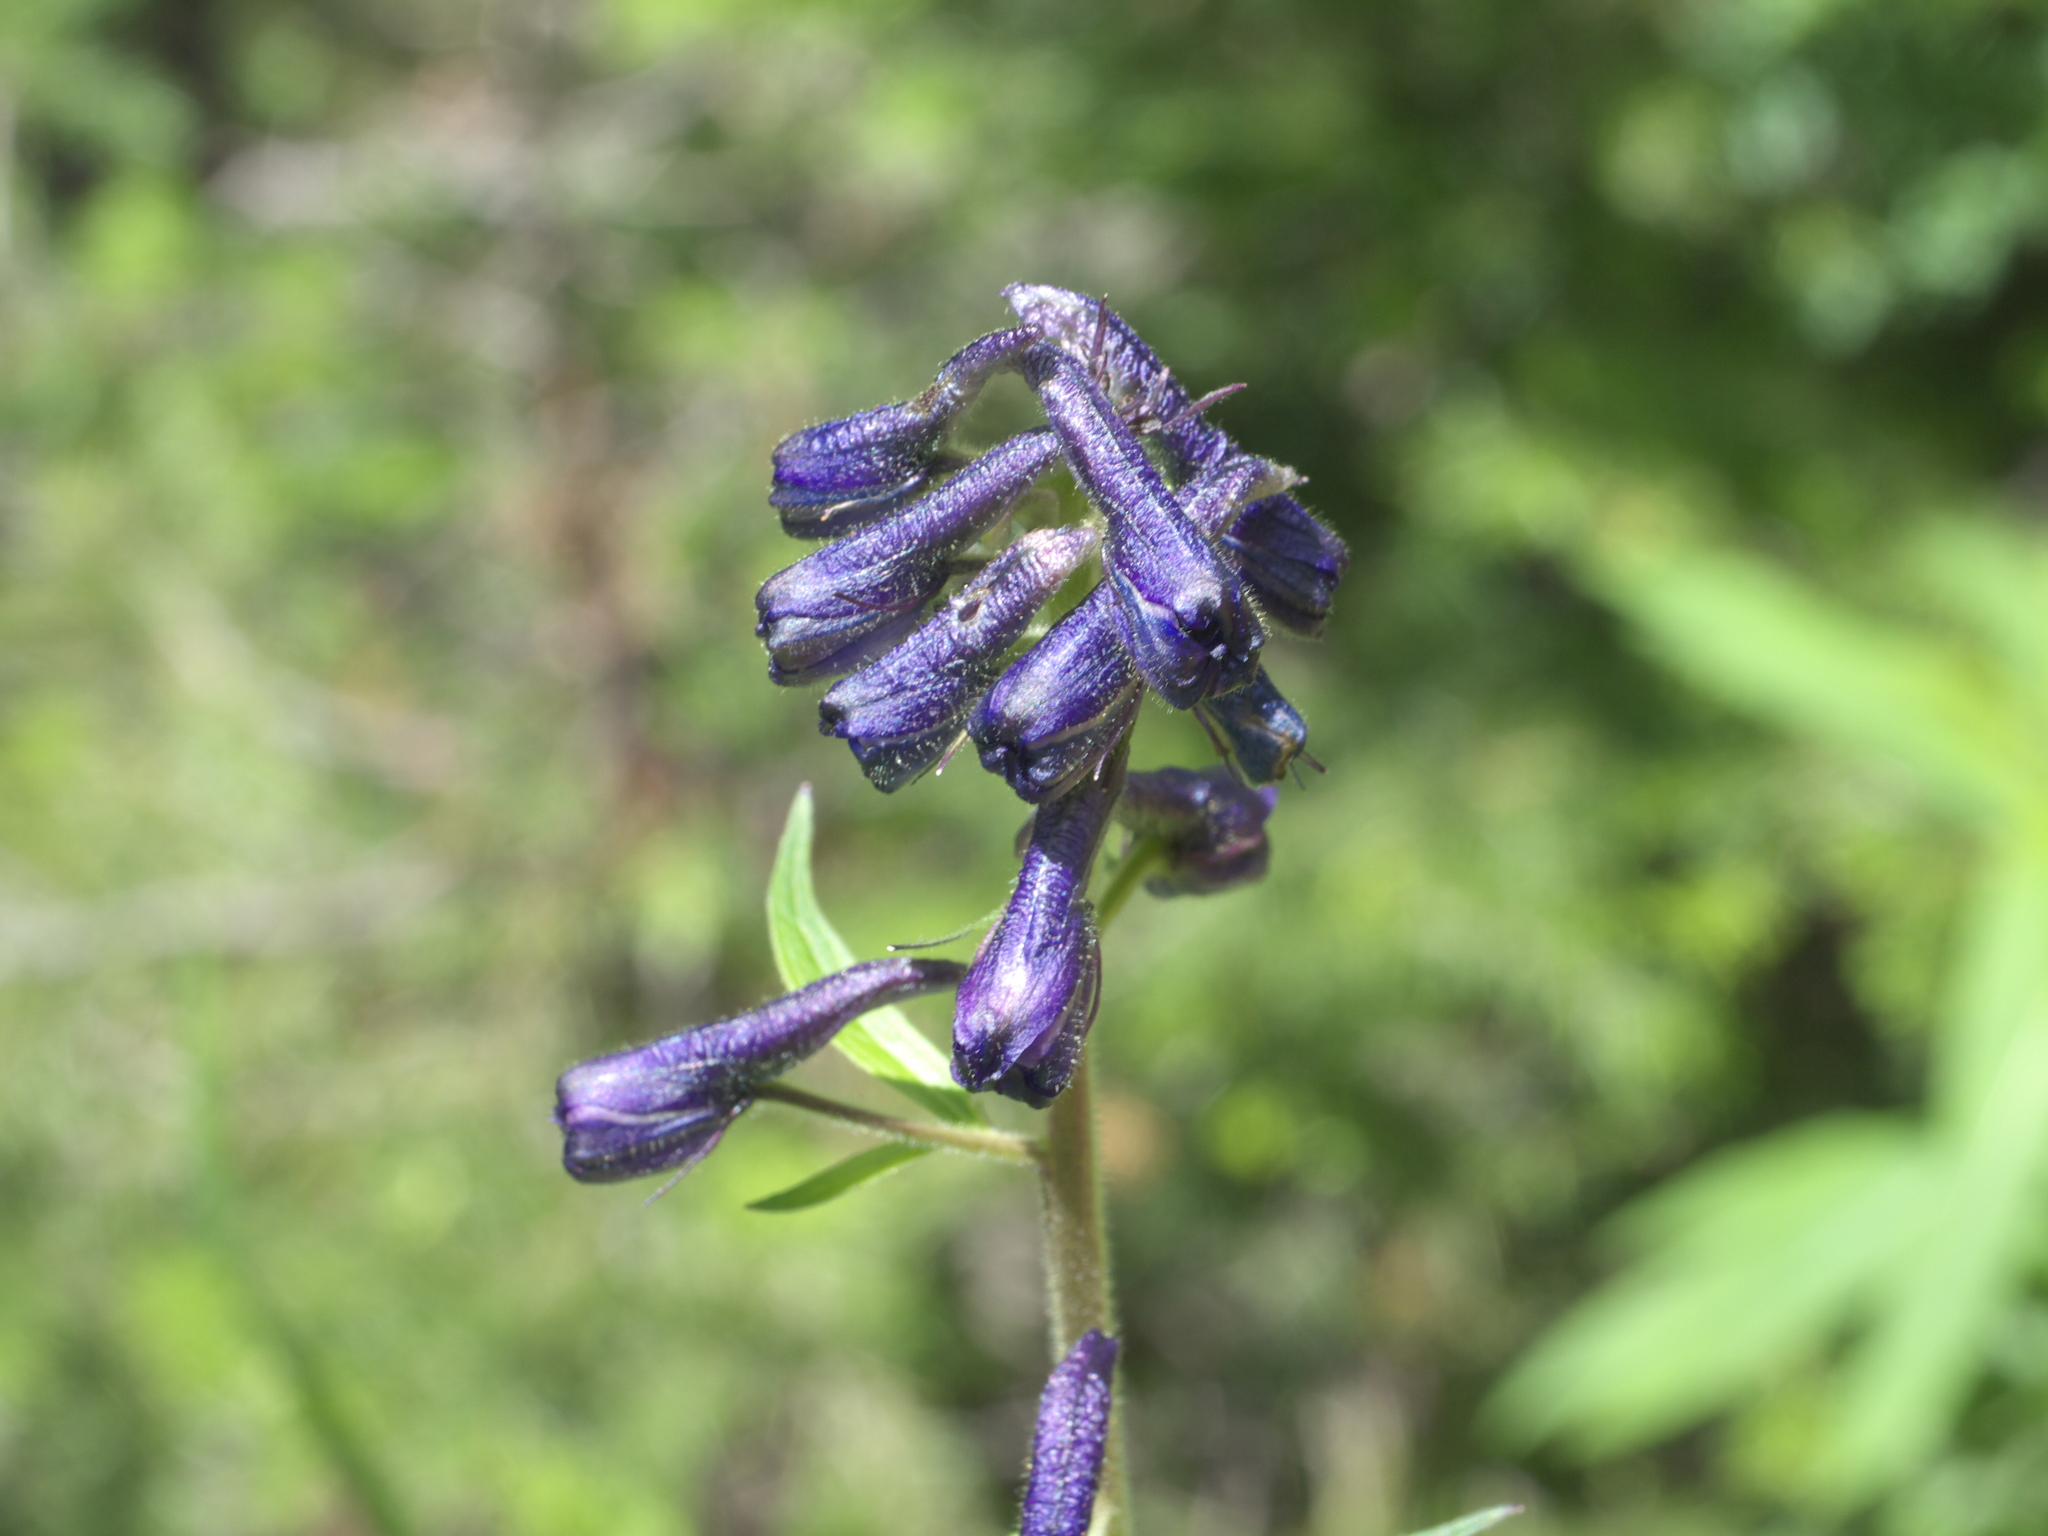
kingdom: Plantae
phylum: Tracheophyta
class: Magnoliopsida
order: Ranunculales
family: Ranunculaceae
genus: Delphinium
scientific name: Delphinium barbeyi
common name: Subalpine larkspur
